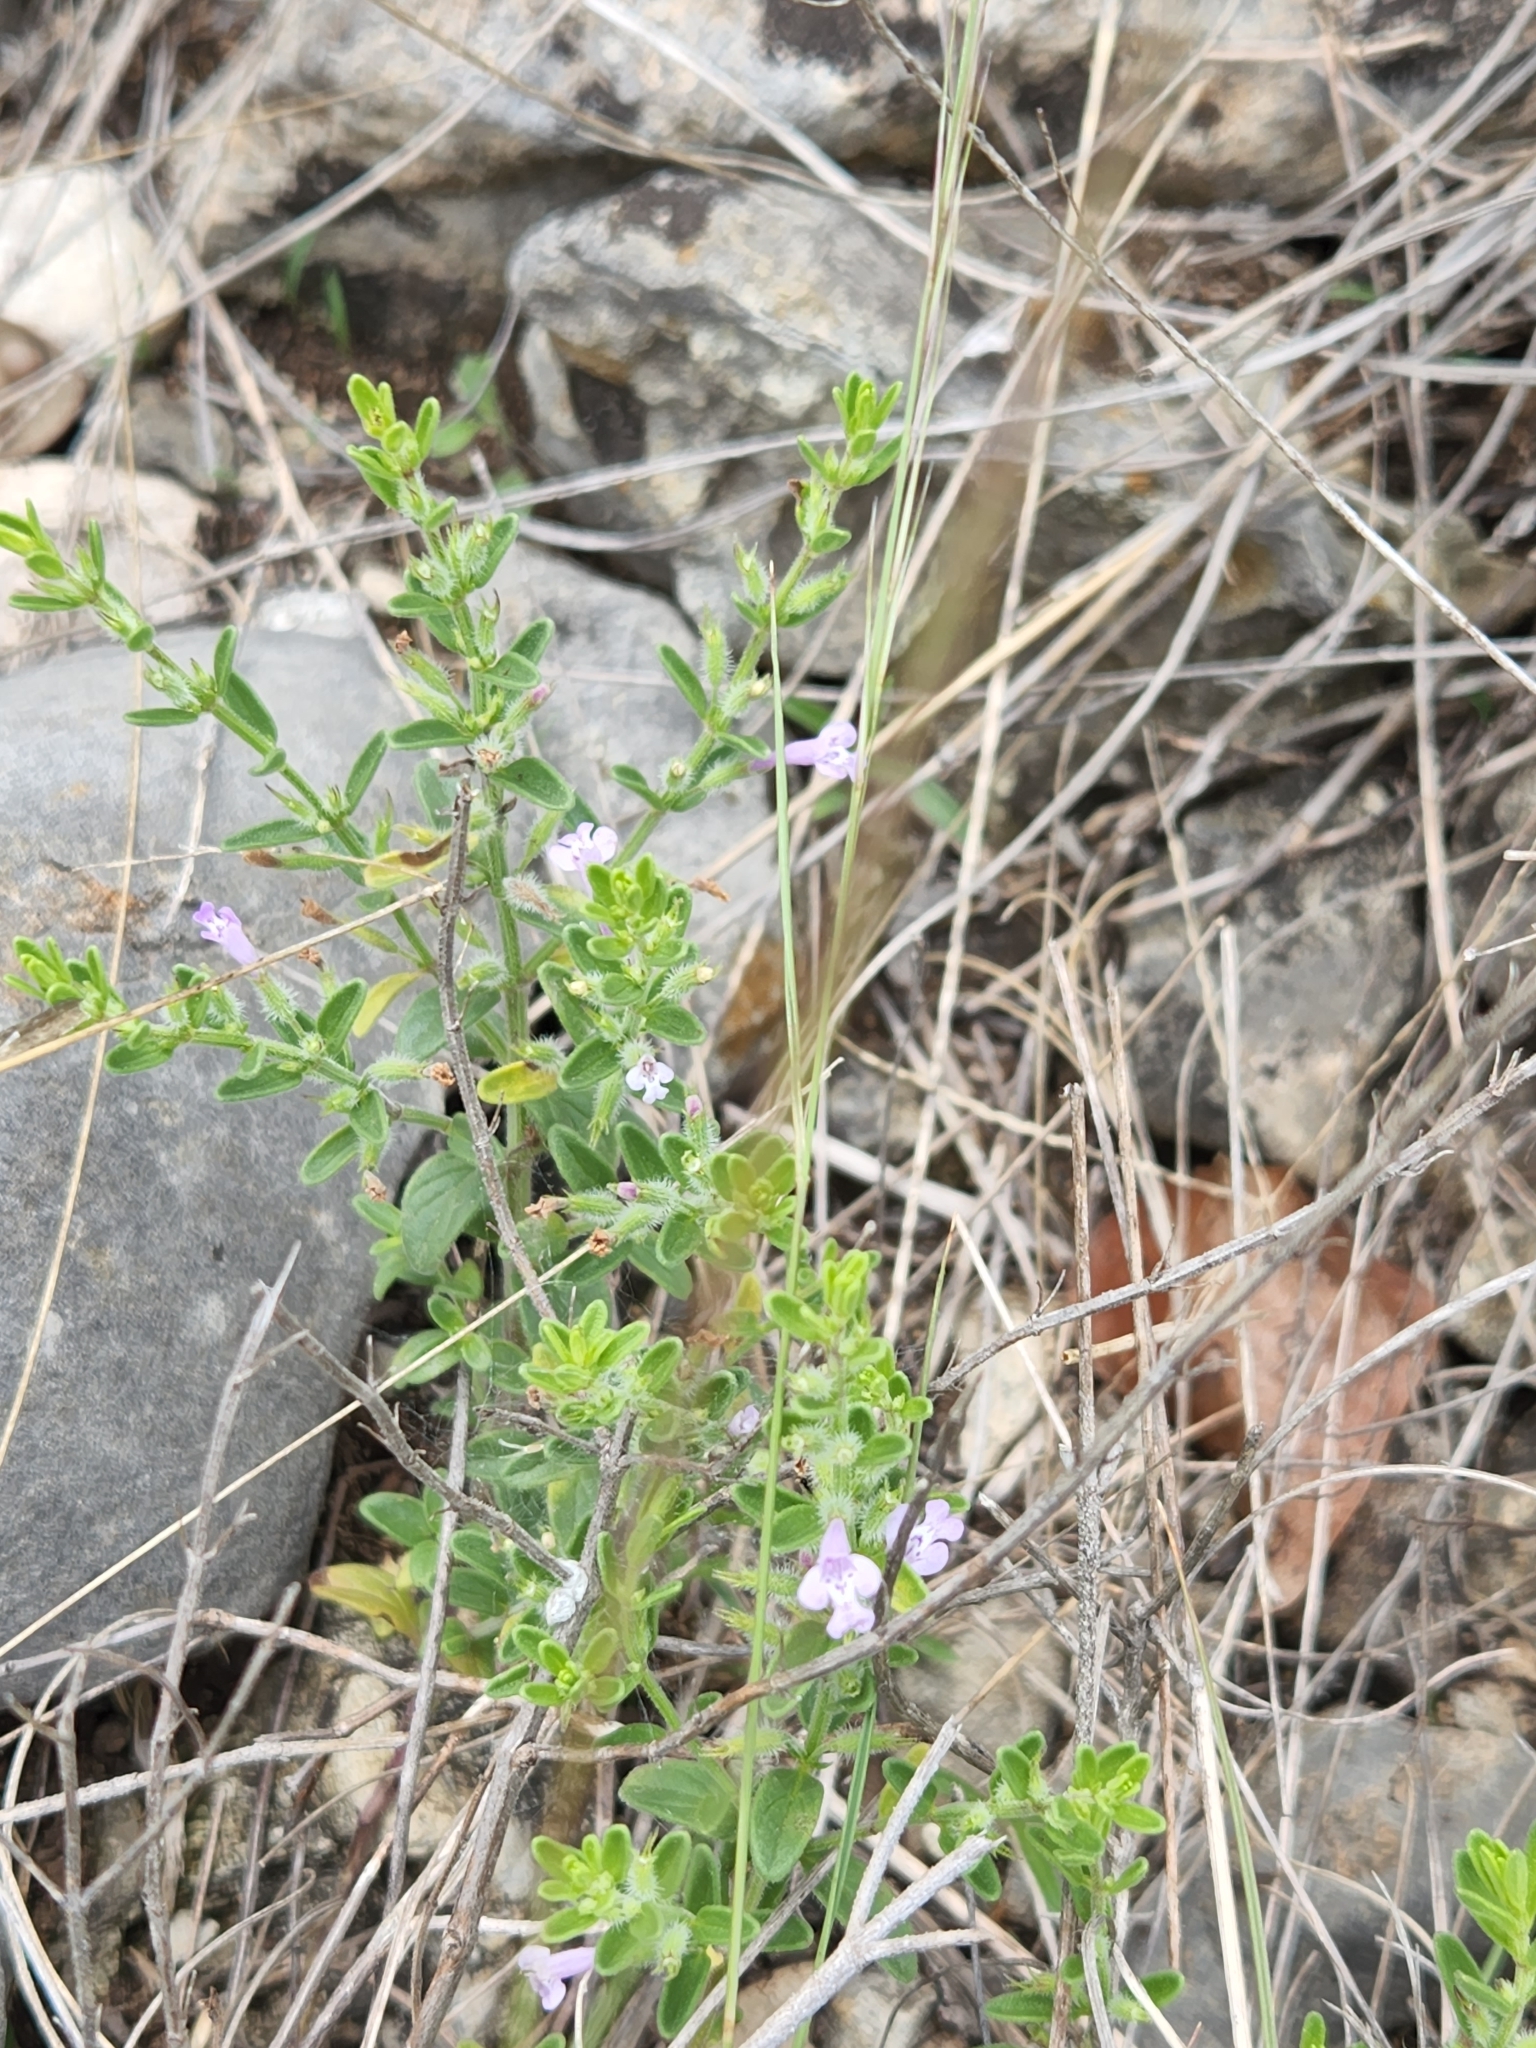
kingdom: Plantae
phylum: Tracheophyta
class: Magnoliopsida
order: Lamiales
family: Lamiaceae
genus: Hedeoma
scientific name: Hedeoma reverchonii
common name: Reverchon's false penny-royal
